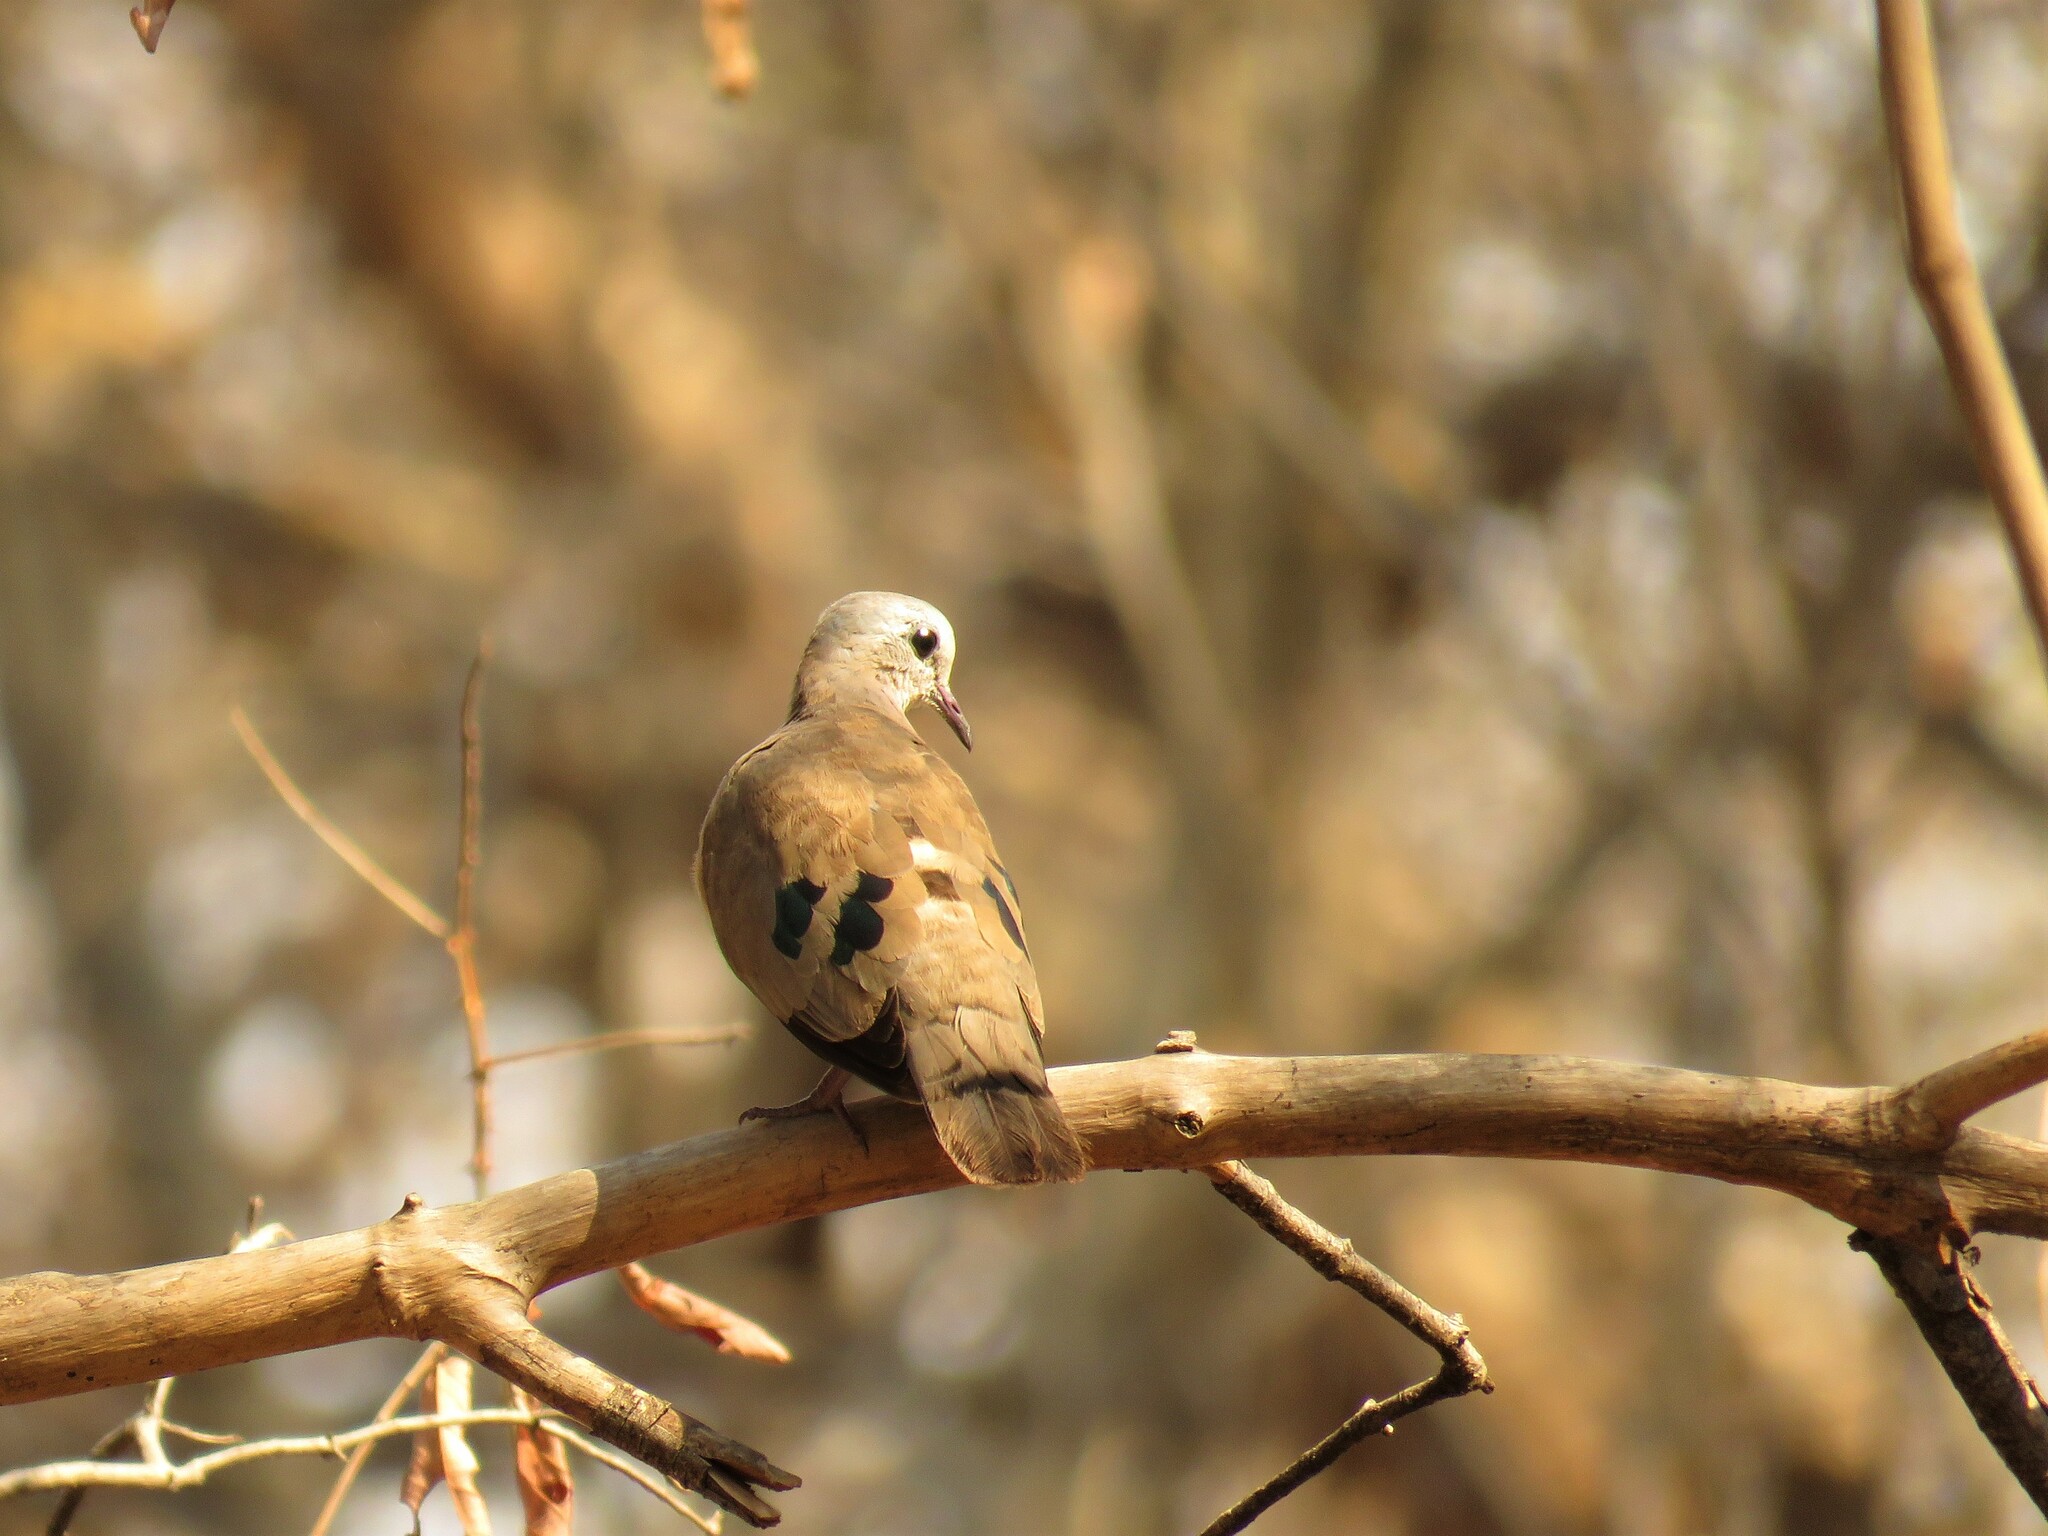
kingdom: Animalia
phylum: Chordata
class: Aves
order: Columbiformes
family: Columbidae
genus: Turtur
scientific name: Turtur chalcospilos
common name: Emerald-spotted wood dove
